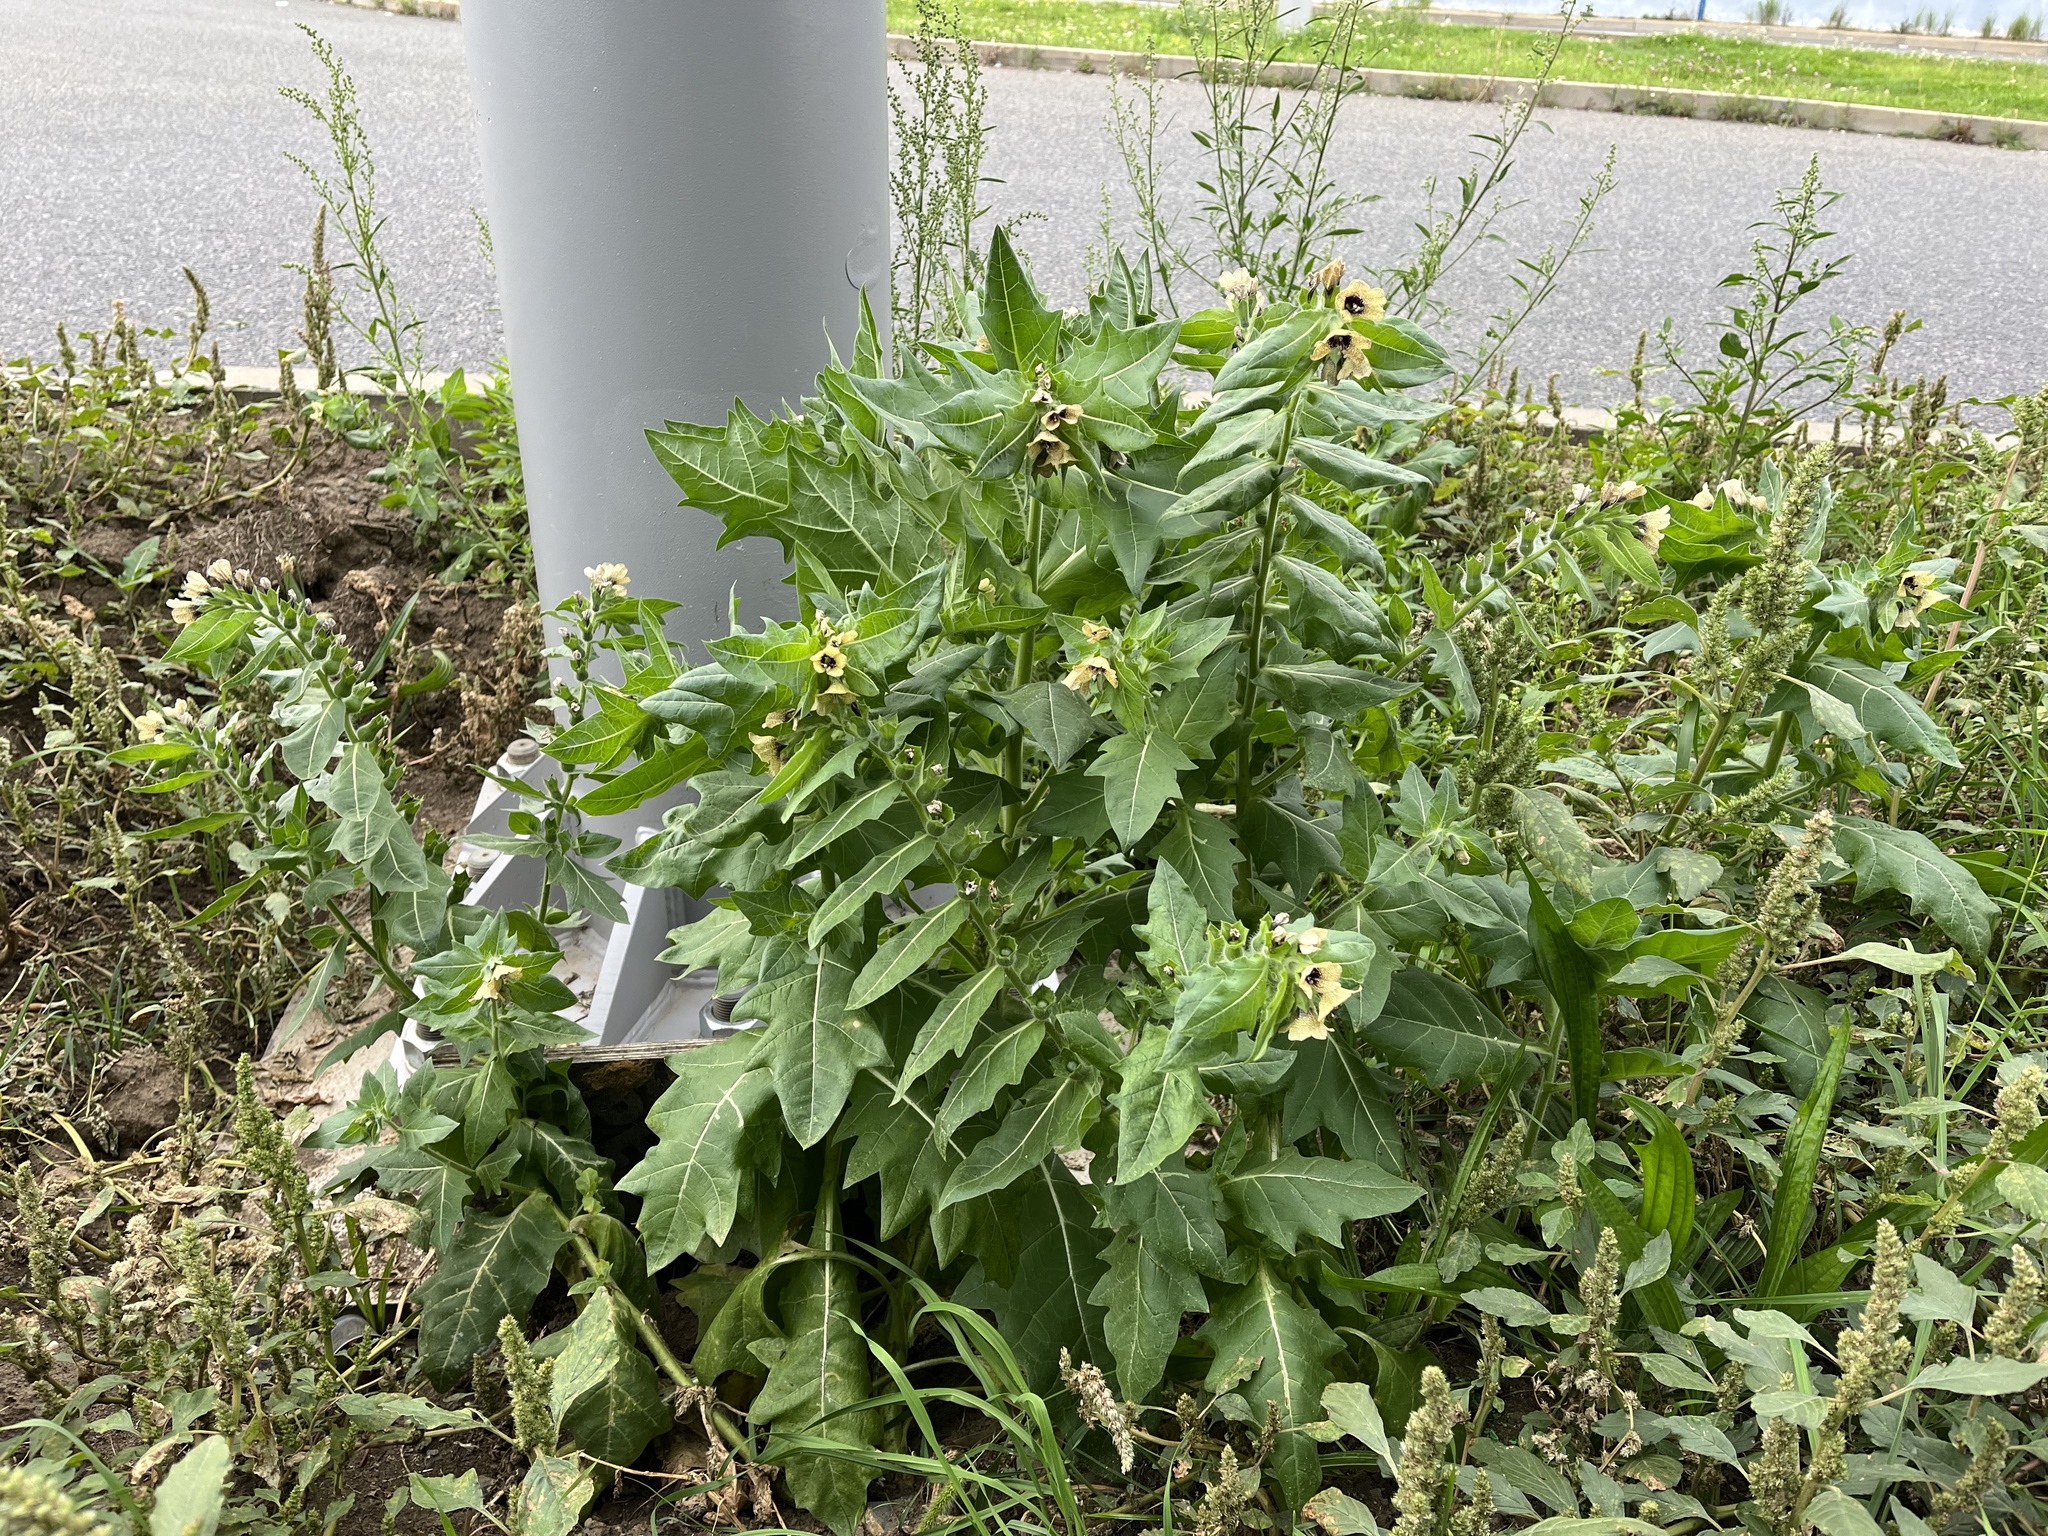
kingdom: Plantae
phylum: Tracheophyta
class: Magnoliopsida
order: Solanales
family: Solanaceae
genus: Hyoscyamus
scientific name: Hyoscyamus niger
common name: Henbane
